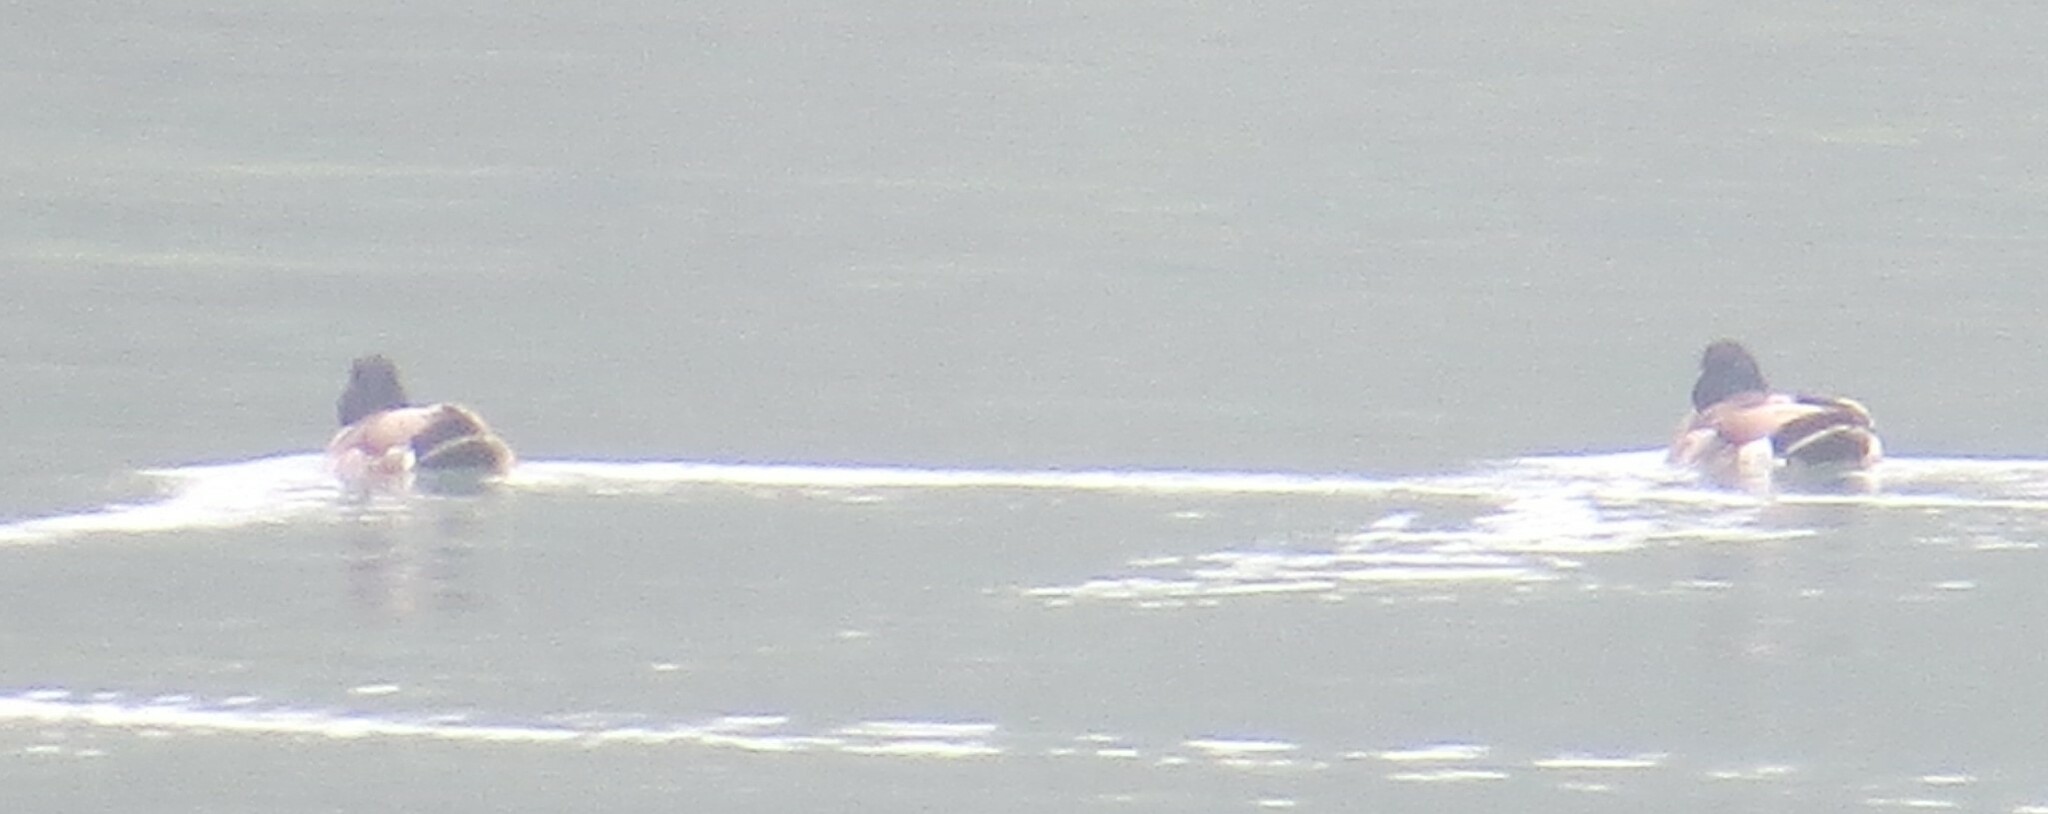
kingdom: Animalia
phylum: Chordata
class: Aves
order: Anseriformes
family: Anatidae
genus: Anas
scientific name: Anas platyrhynchos
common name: Mallard
